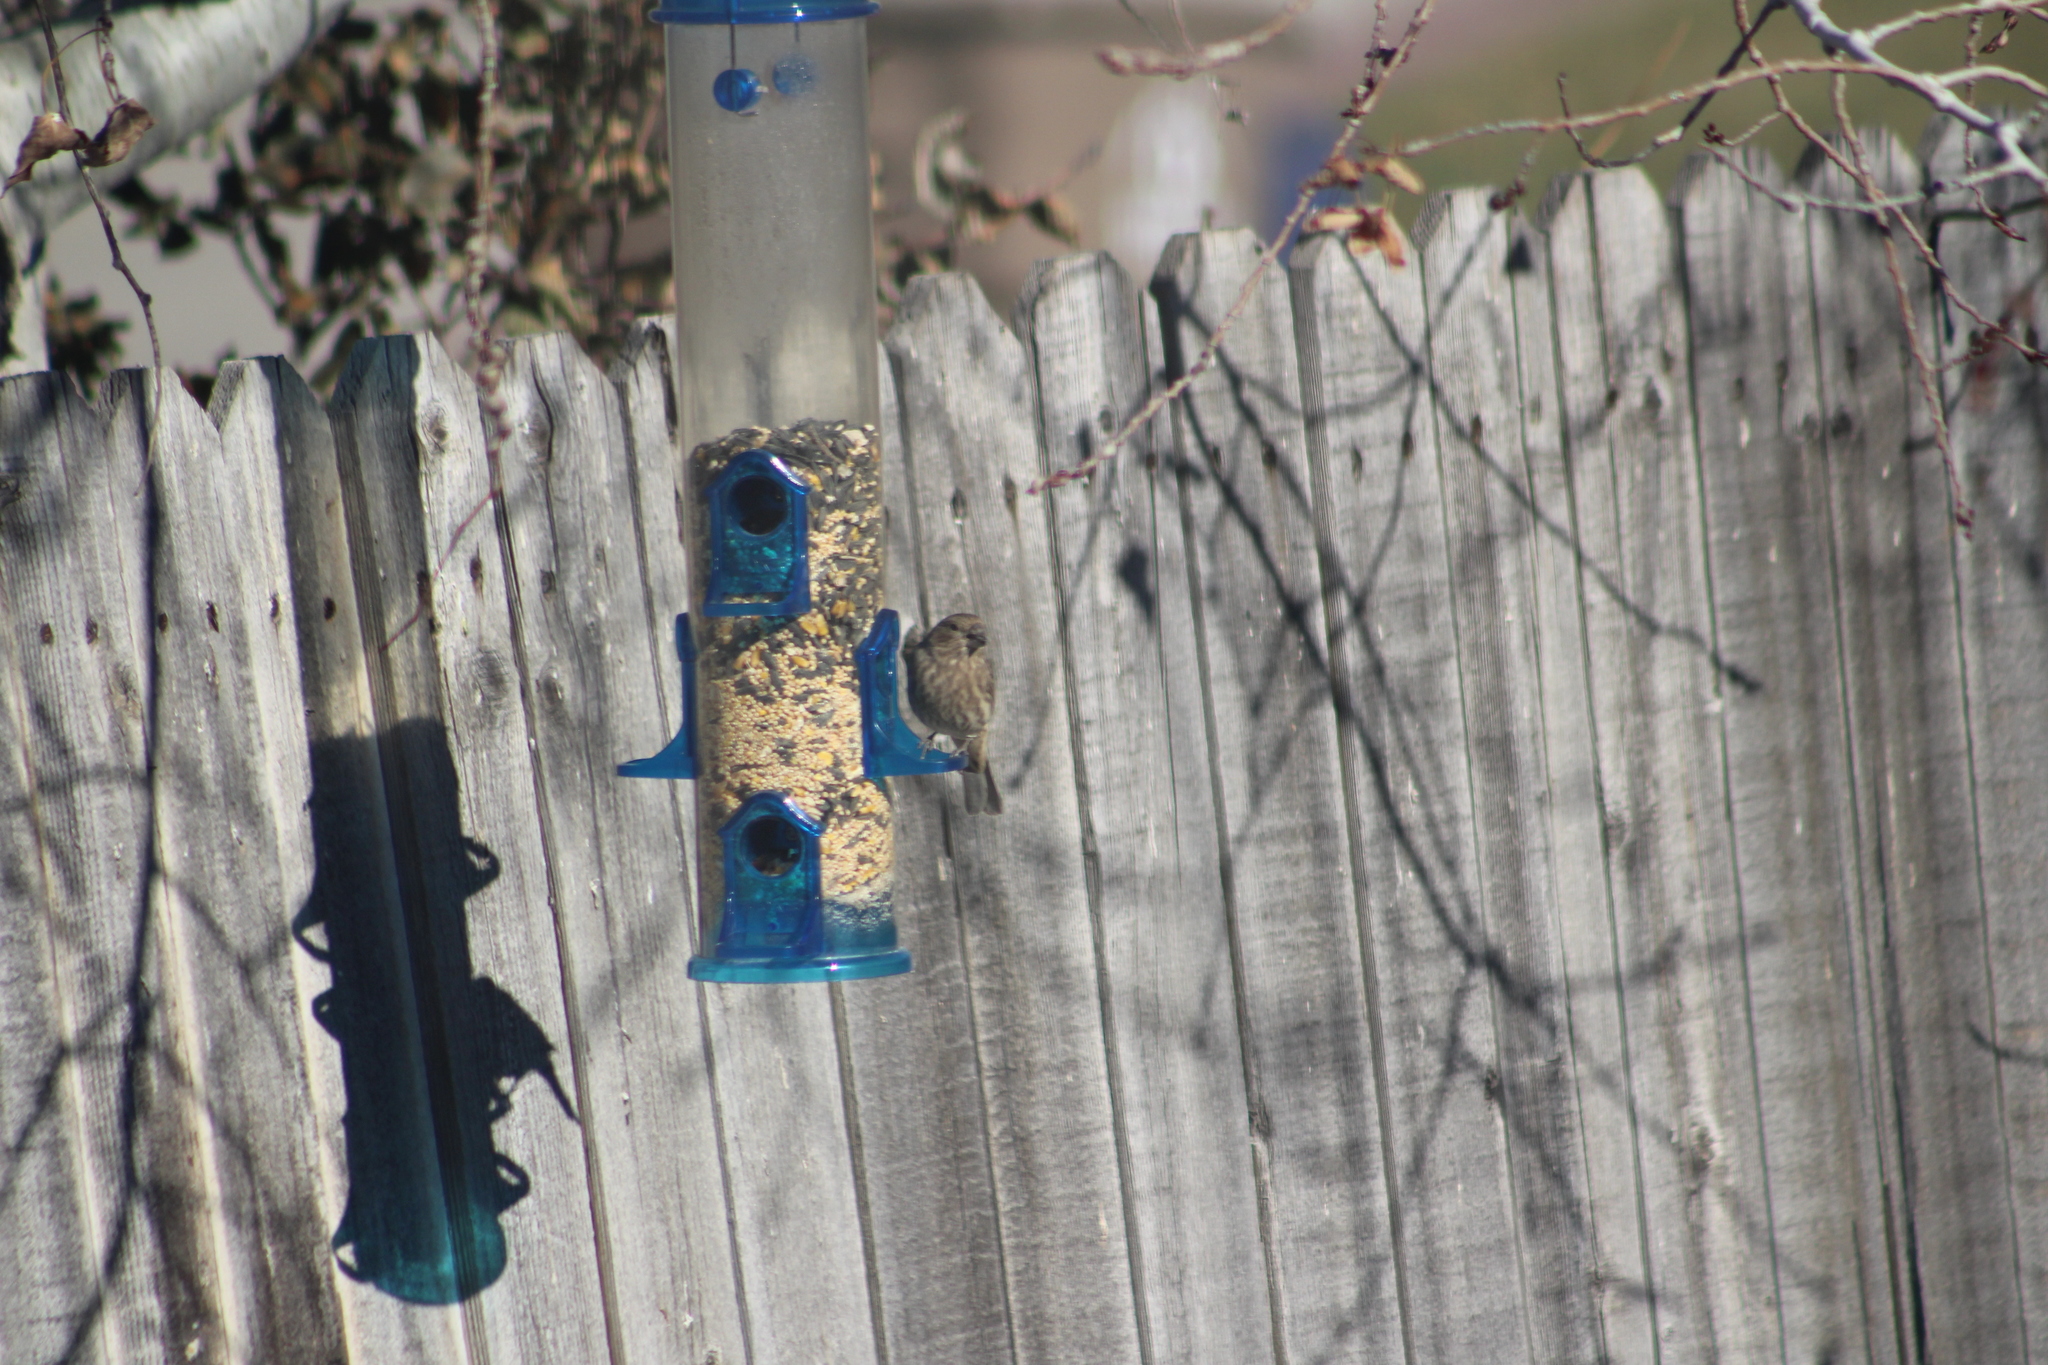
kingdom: Animalia
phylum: Chordata
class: Aves
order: Passeriformes
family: Fringillidae
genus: Haemorhous
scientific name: Haemorhous mexicanus
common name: House finch
